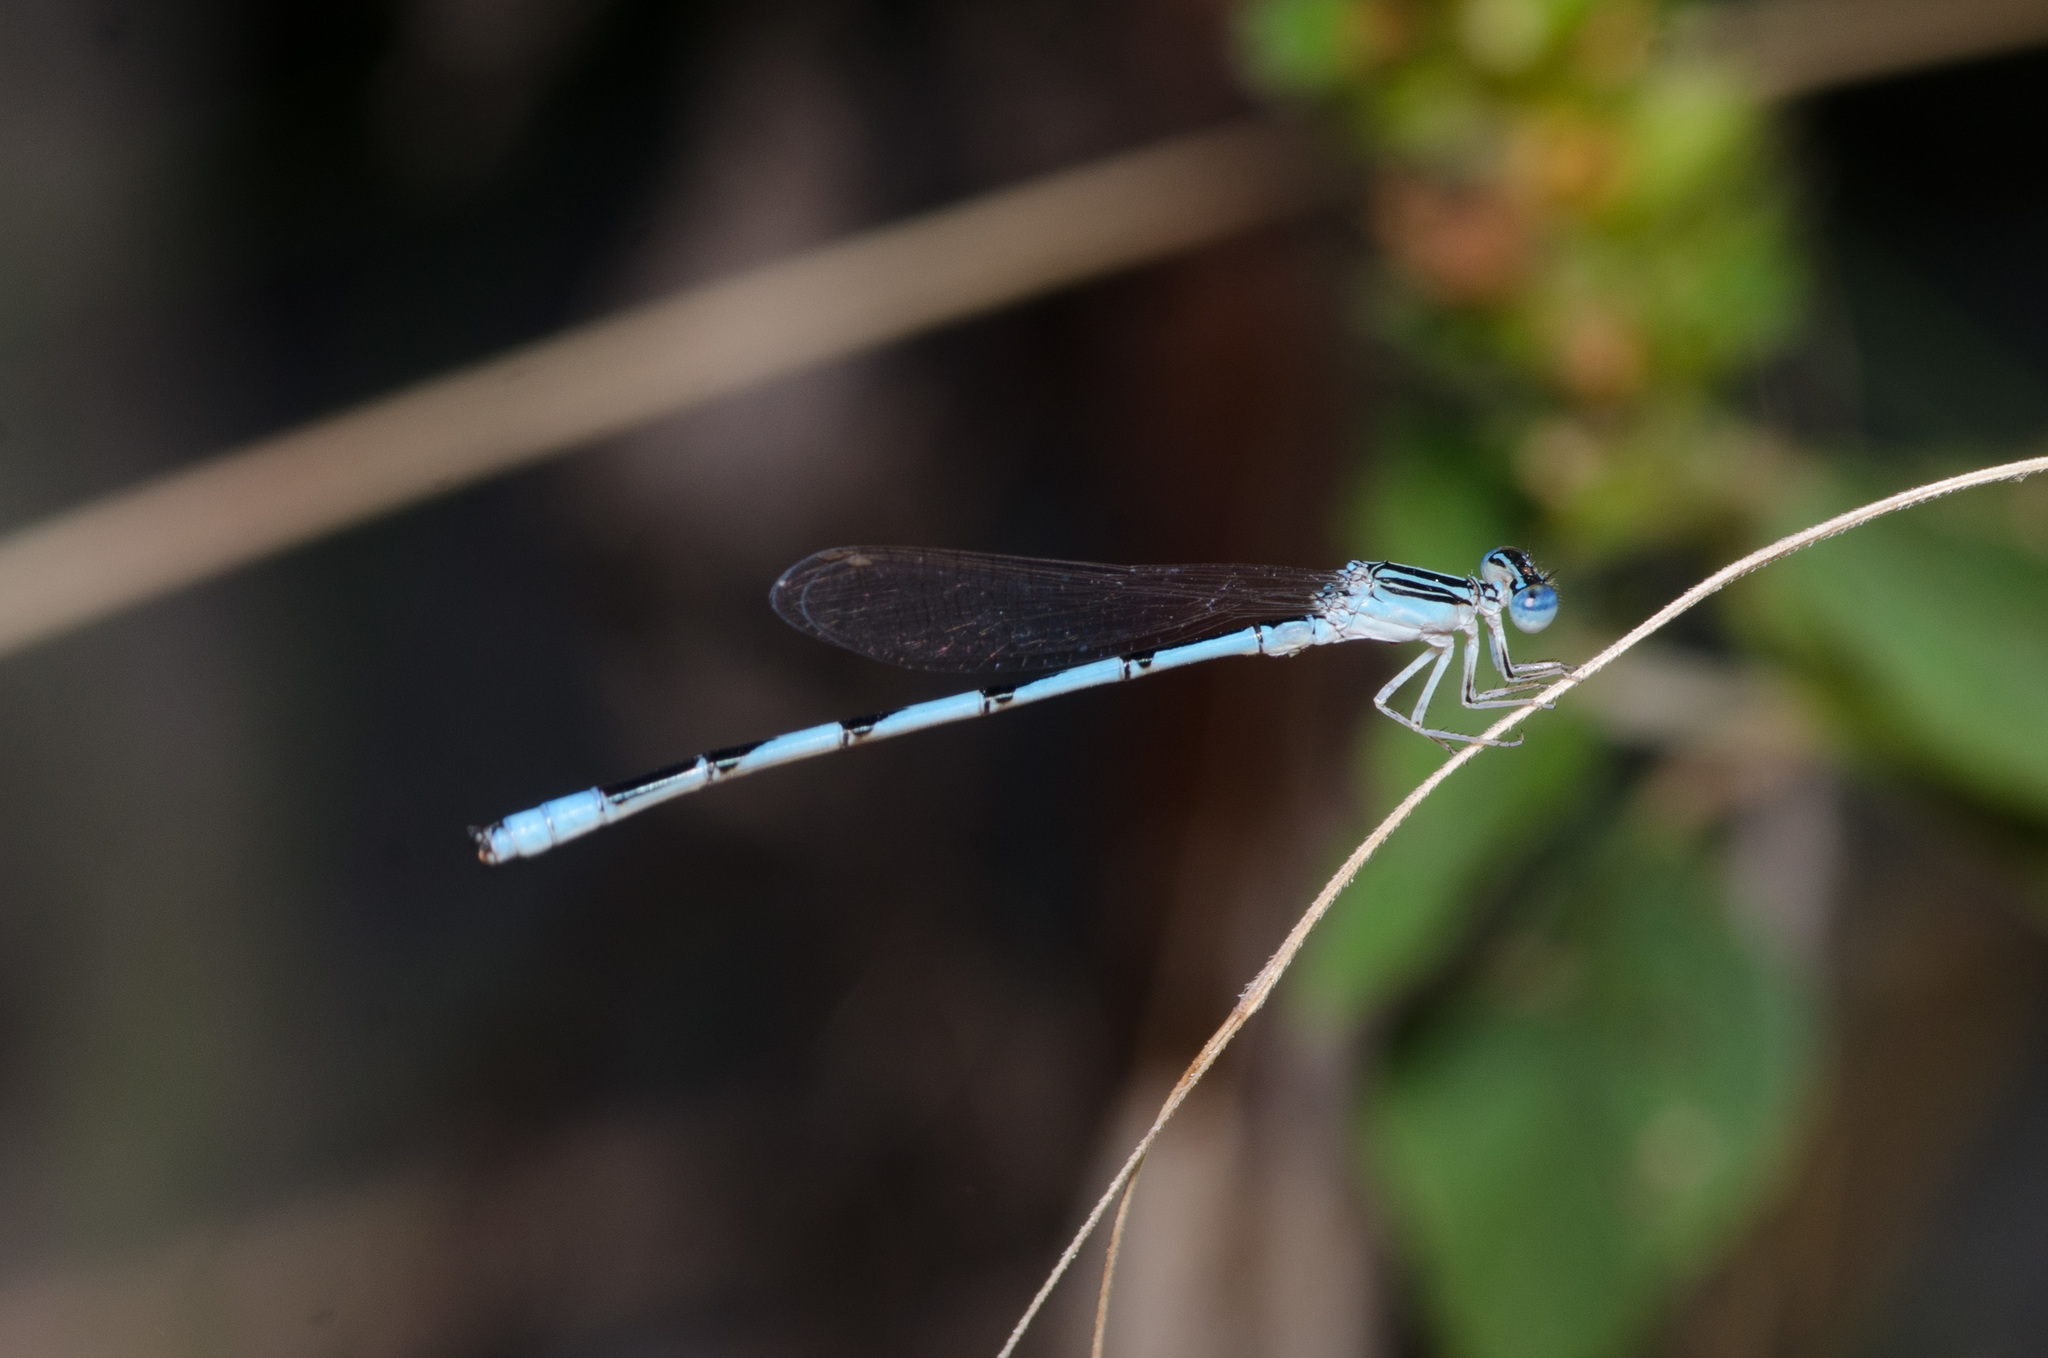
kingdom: Animalia
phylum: Arthropoda
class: Insecta
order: Odonata
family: Coenagrionidae
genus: Enallagma
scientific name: Enallagma basidens
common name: Double-striped bluet
